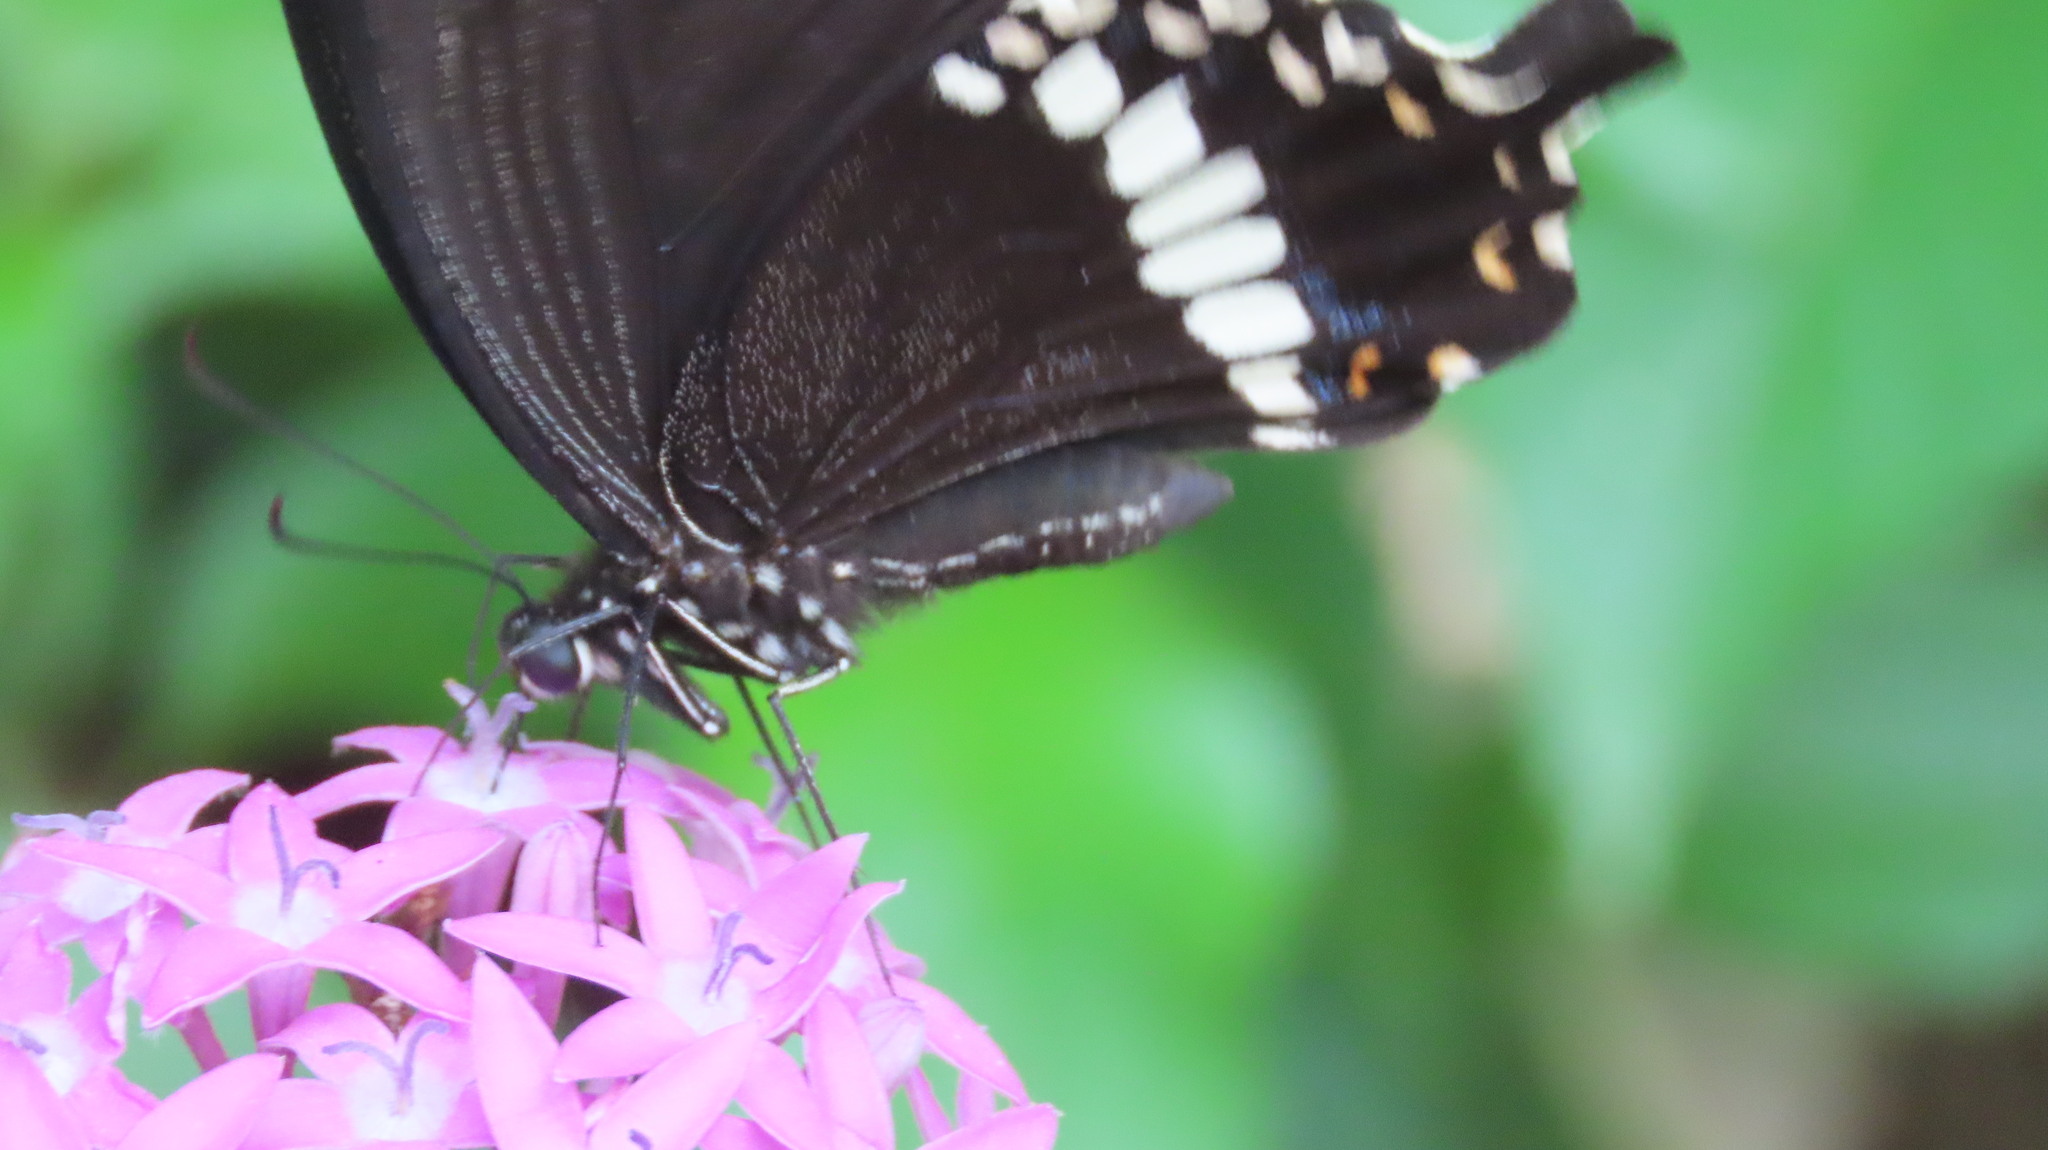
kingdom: Animalia
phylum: Arthropoda
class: Insecta
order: Lepidoptera
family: Papilionidae
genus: Papilio
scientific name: Papilio polytes
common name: Common mormon
